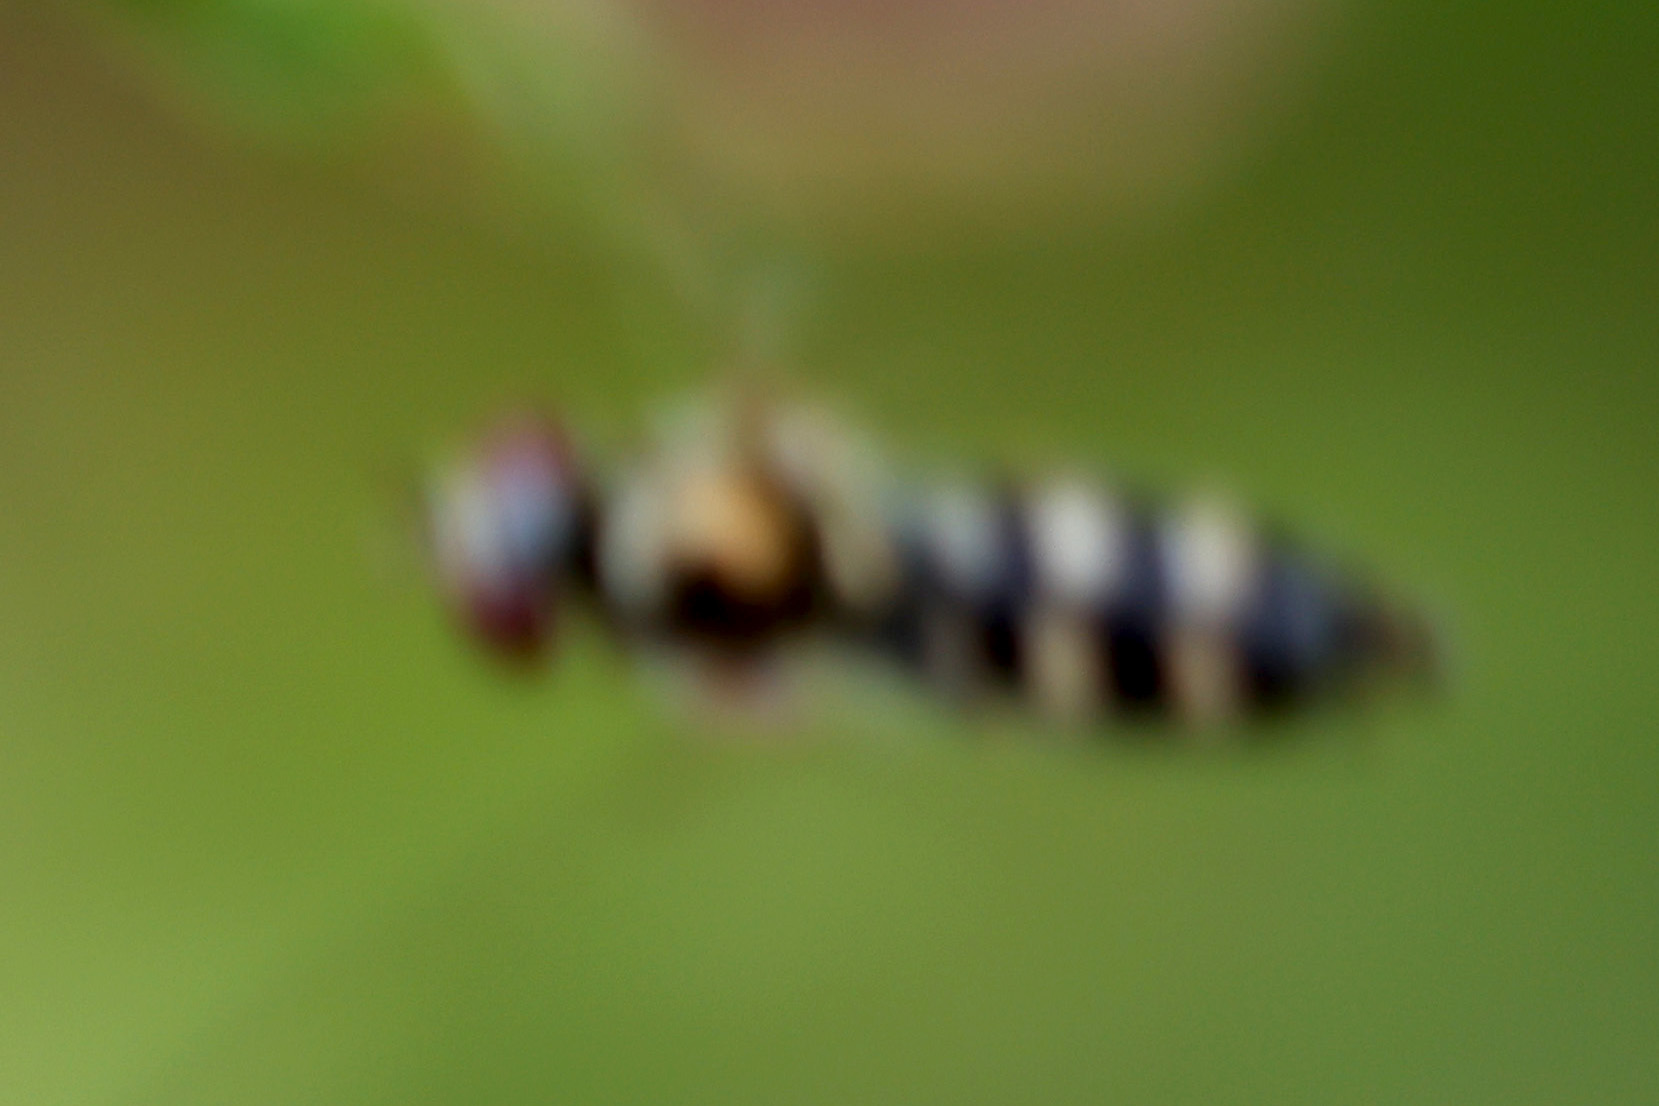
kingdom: Animalia
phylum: Arthropoda
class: Insecta
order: Diptera
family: Syrphidae
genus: Platycheirus
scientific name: Platycheirus
